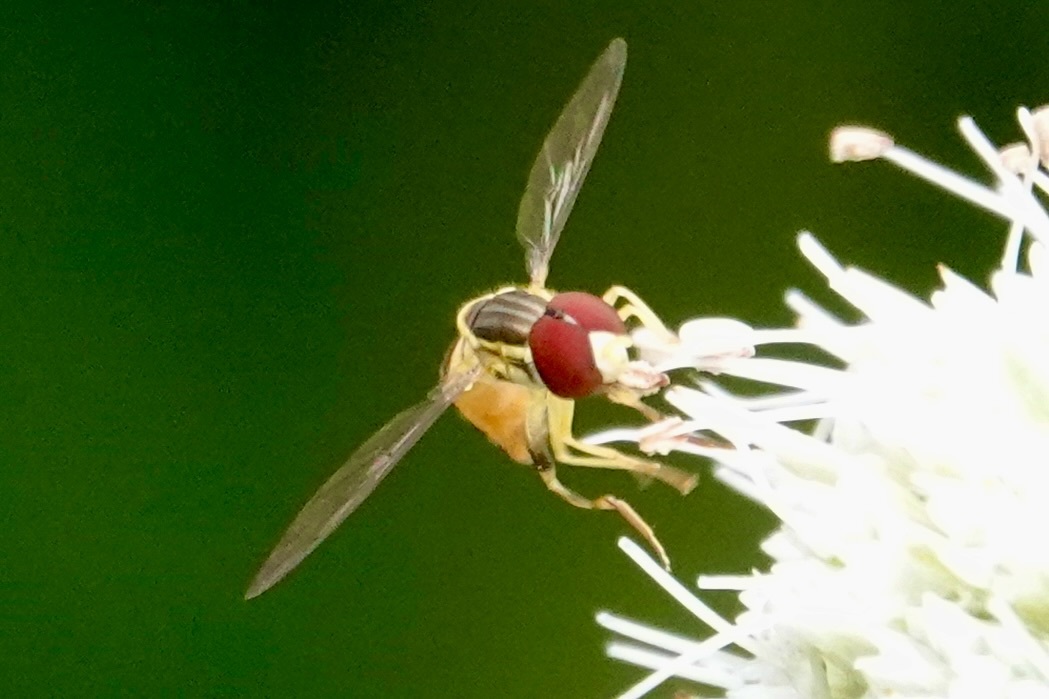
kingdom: Animalia
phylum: Arthropoda
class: Insecta
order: Diptera
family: Syrphidae
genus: Toxomerus
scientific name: Toxomerus geminatus
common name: Eastern calligrapher
